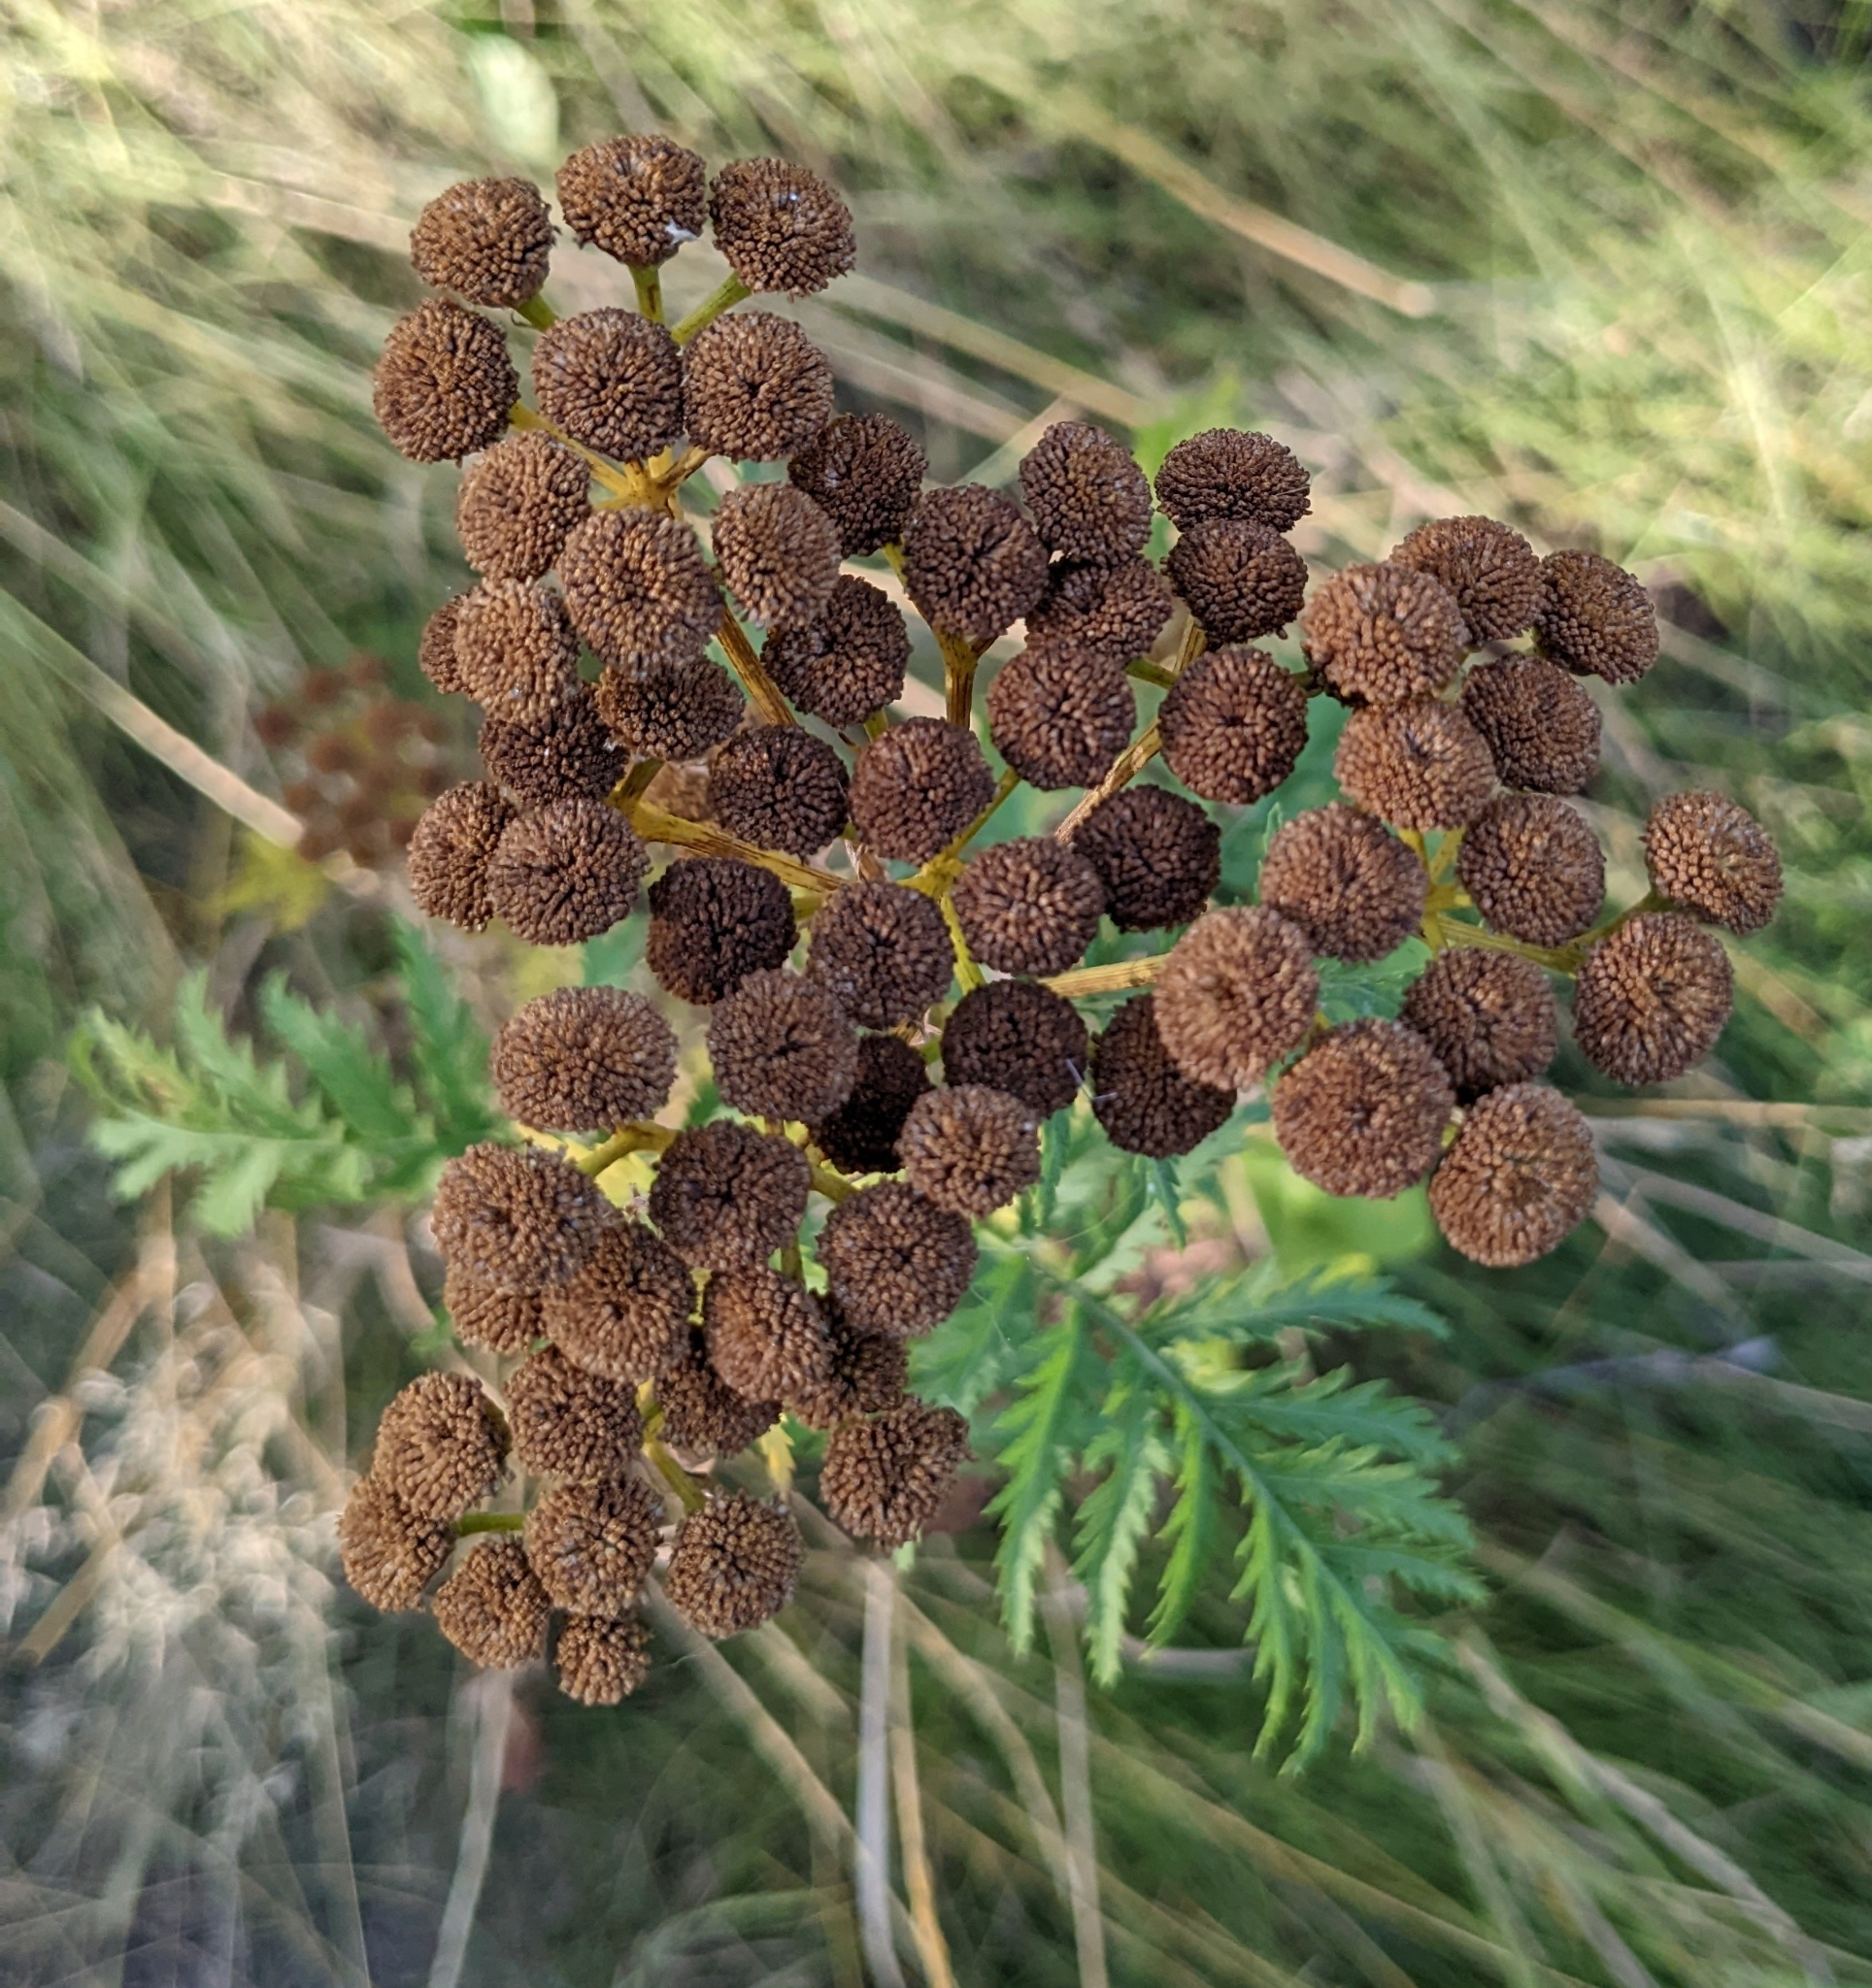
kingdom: Plantae
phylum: Tracheophyta
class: Magnoliopsida
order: Asterales
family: Asteraceae
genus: Tanacetum
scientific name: Tanacetum vulgare
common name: Common tansy
